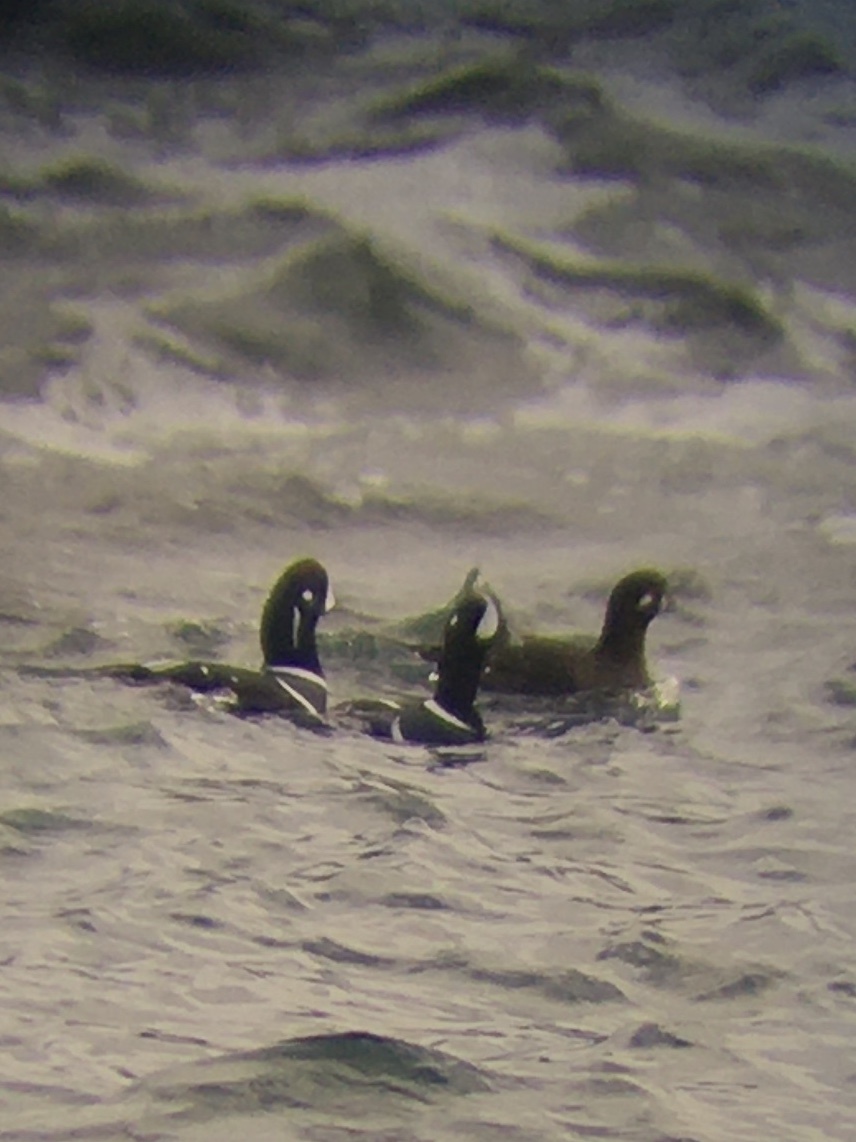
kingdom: Animalia
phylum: Chordata
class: Aves
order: Anseriformes
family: Anatidae
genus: Histrionicus
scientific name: Histrionicus histrionicus
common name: Harlequin duck
